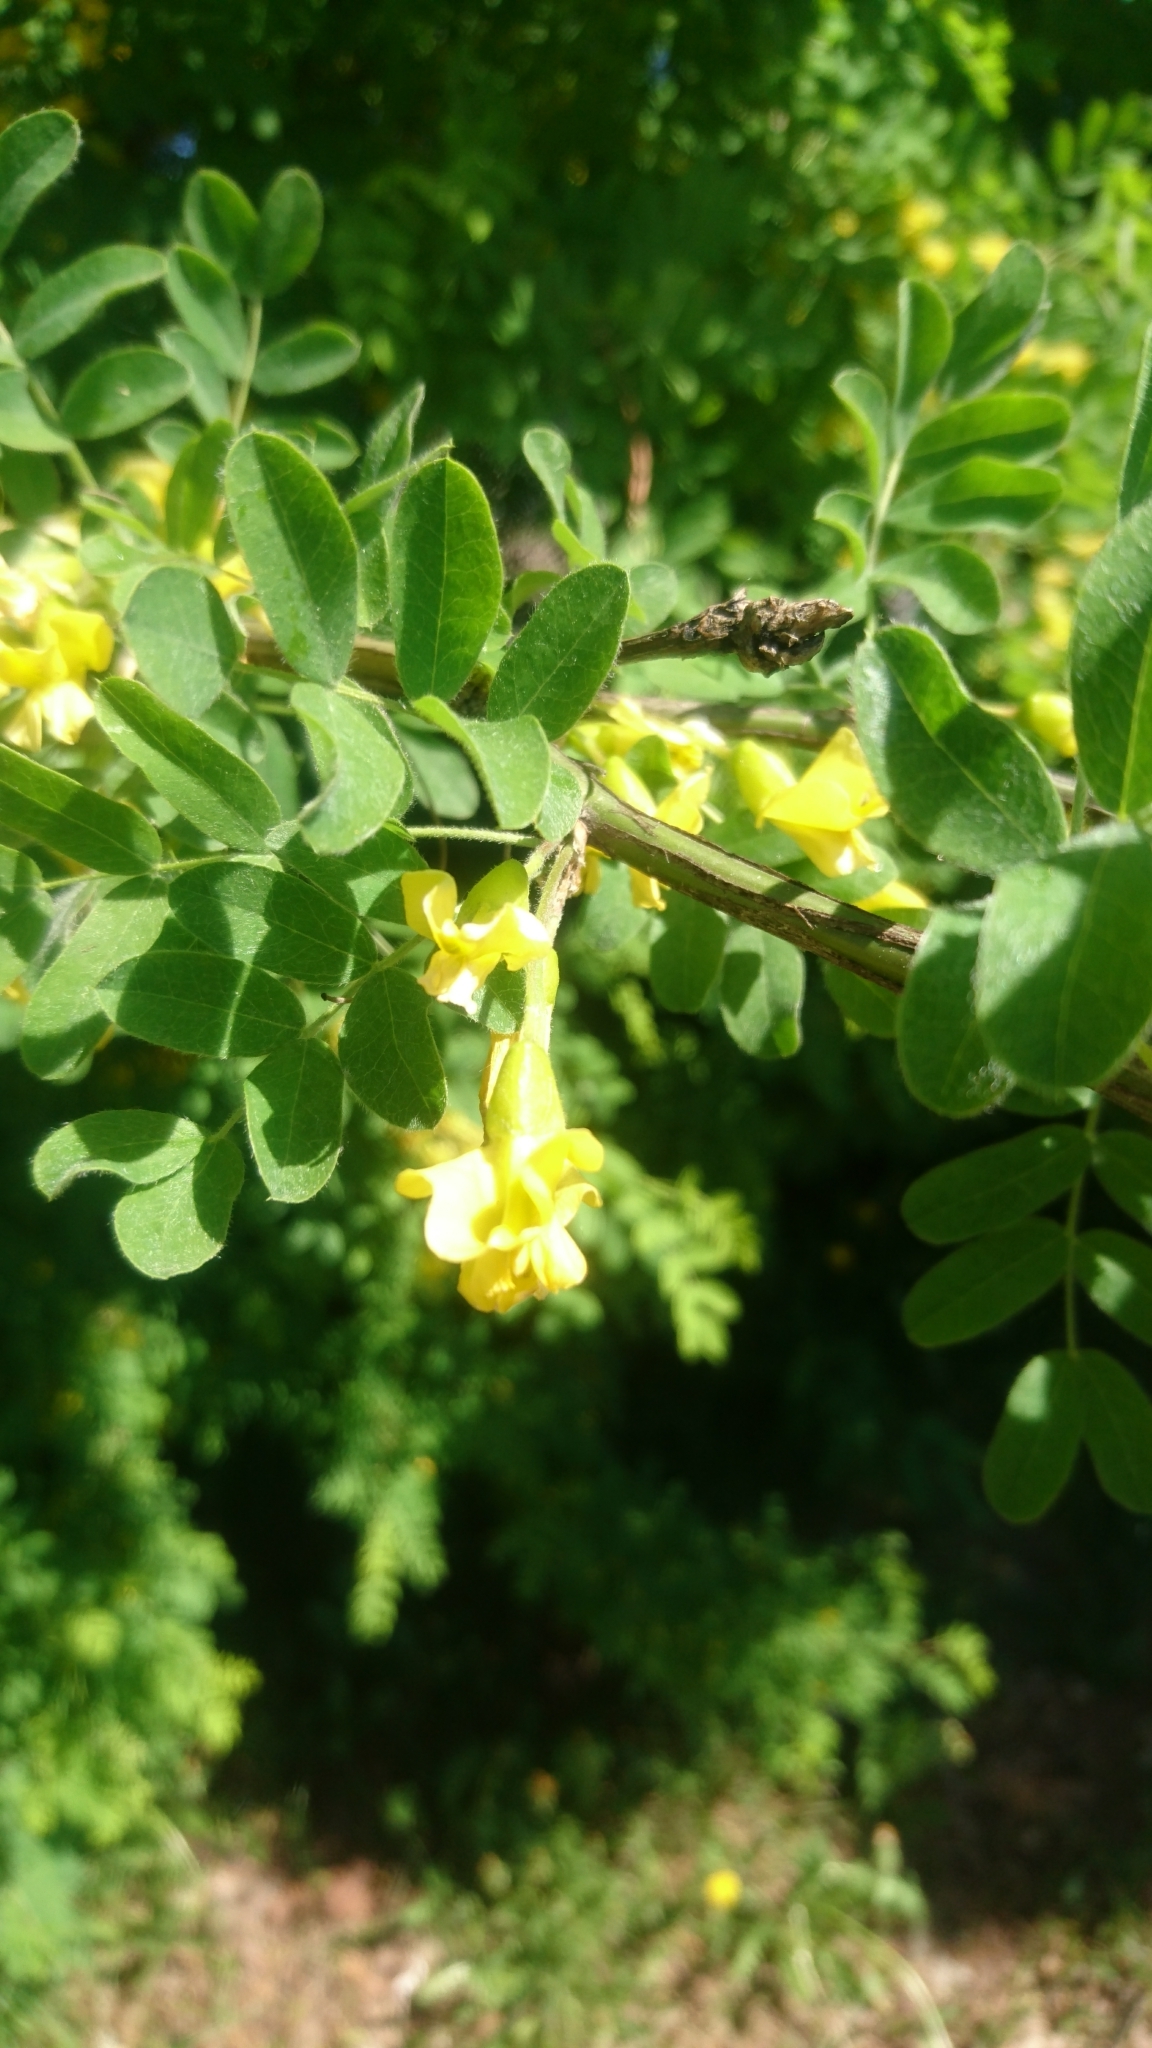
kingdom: Plantae
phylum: Tracheophyta
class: Magnoliopsida
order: Fabales
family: Fabaceae
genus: Caragana
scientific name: Caragana arborescens
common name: Siberian peashrub
